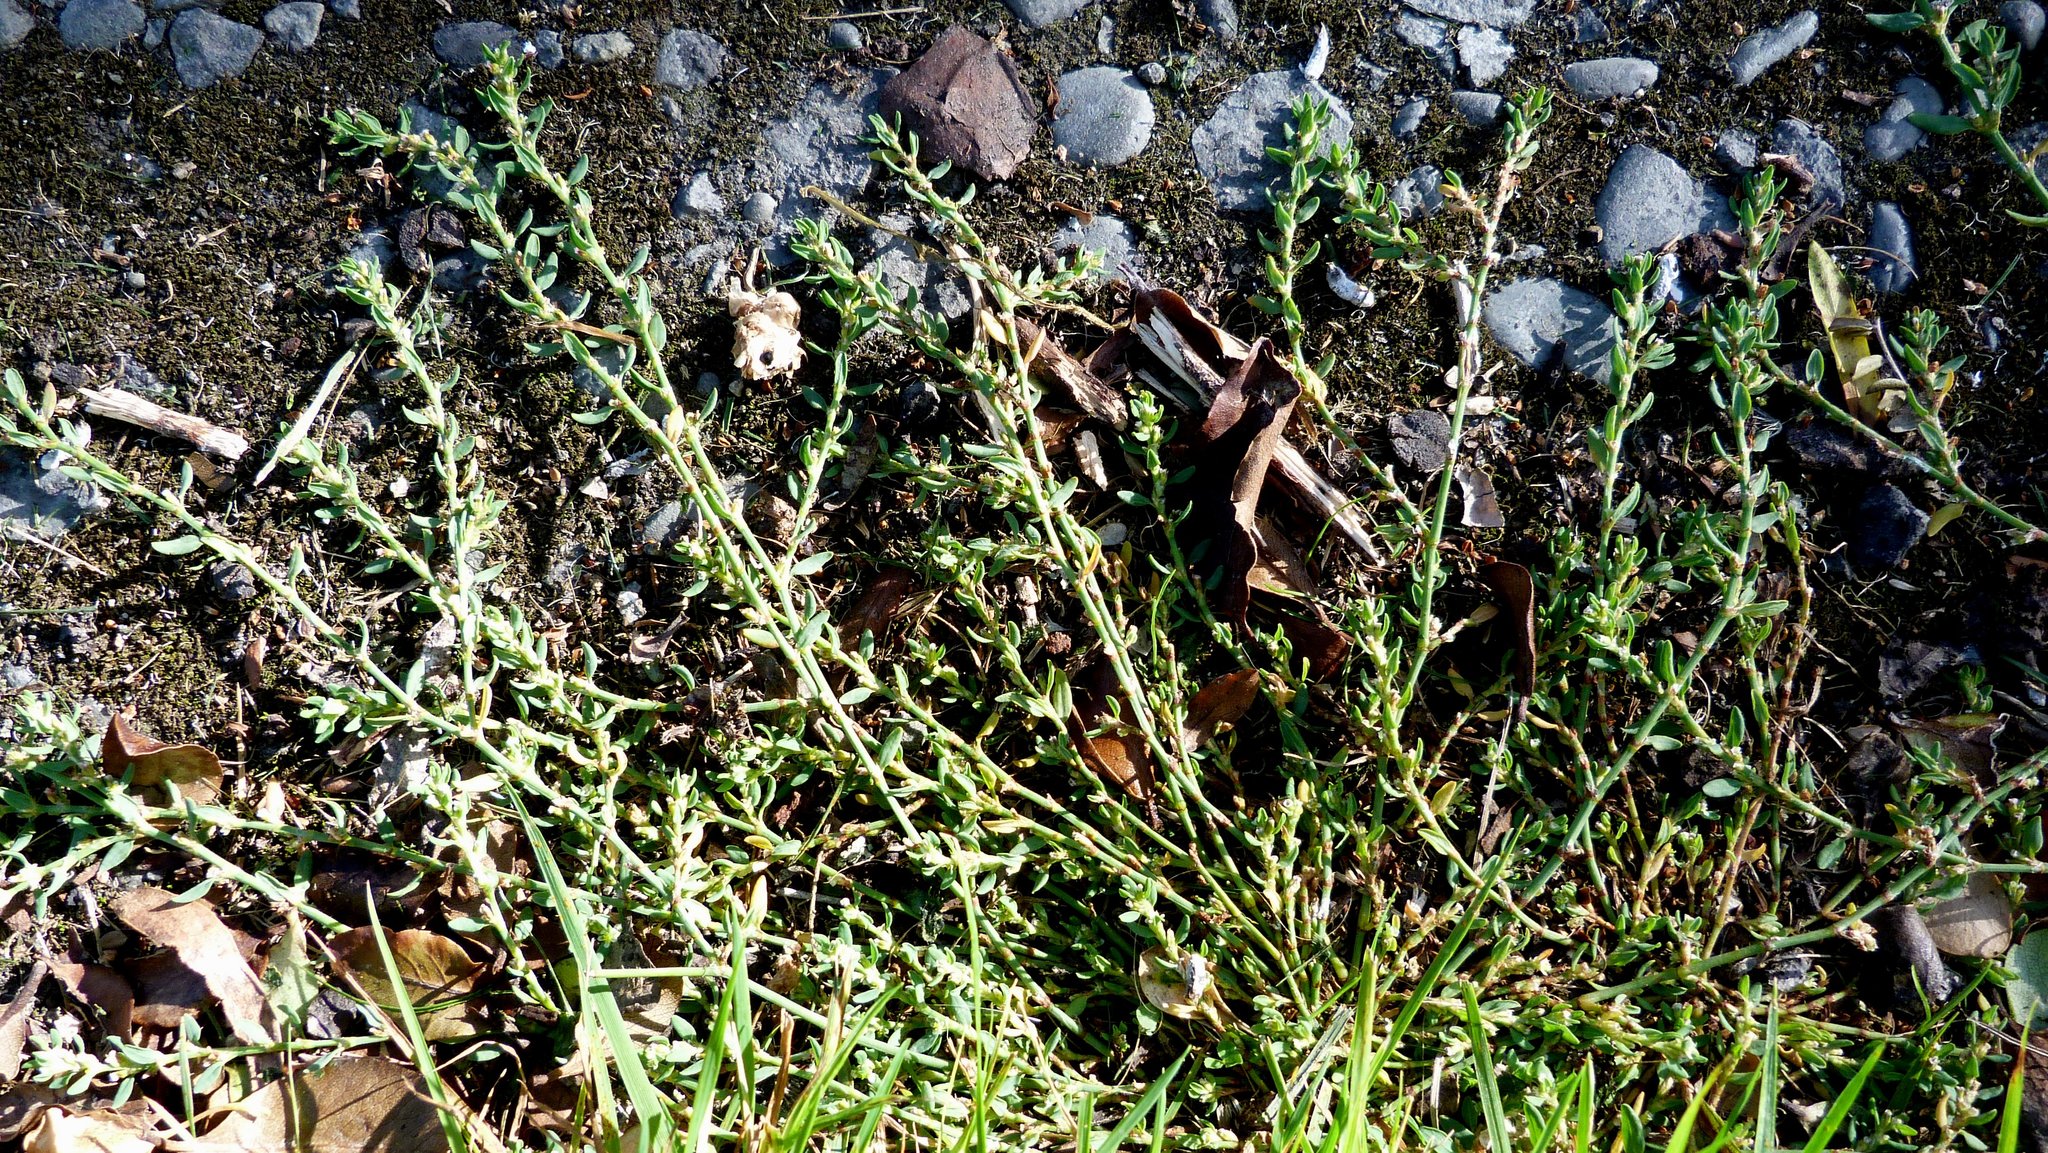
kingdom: Plantae
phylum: Tracheophyta
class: Magnoliopsida
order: Caryophyllales
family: Polygonaceae
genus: Polygonum
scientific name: Polygonum aviculare
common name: Prostrate knotweed
